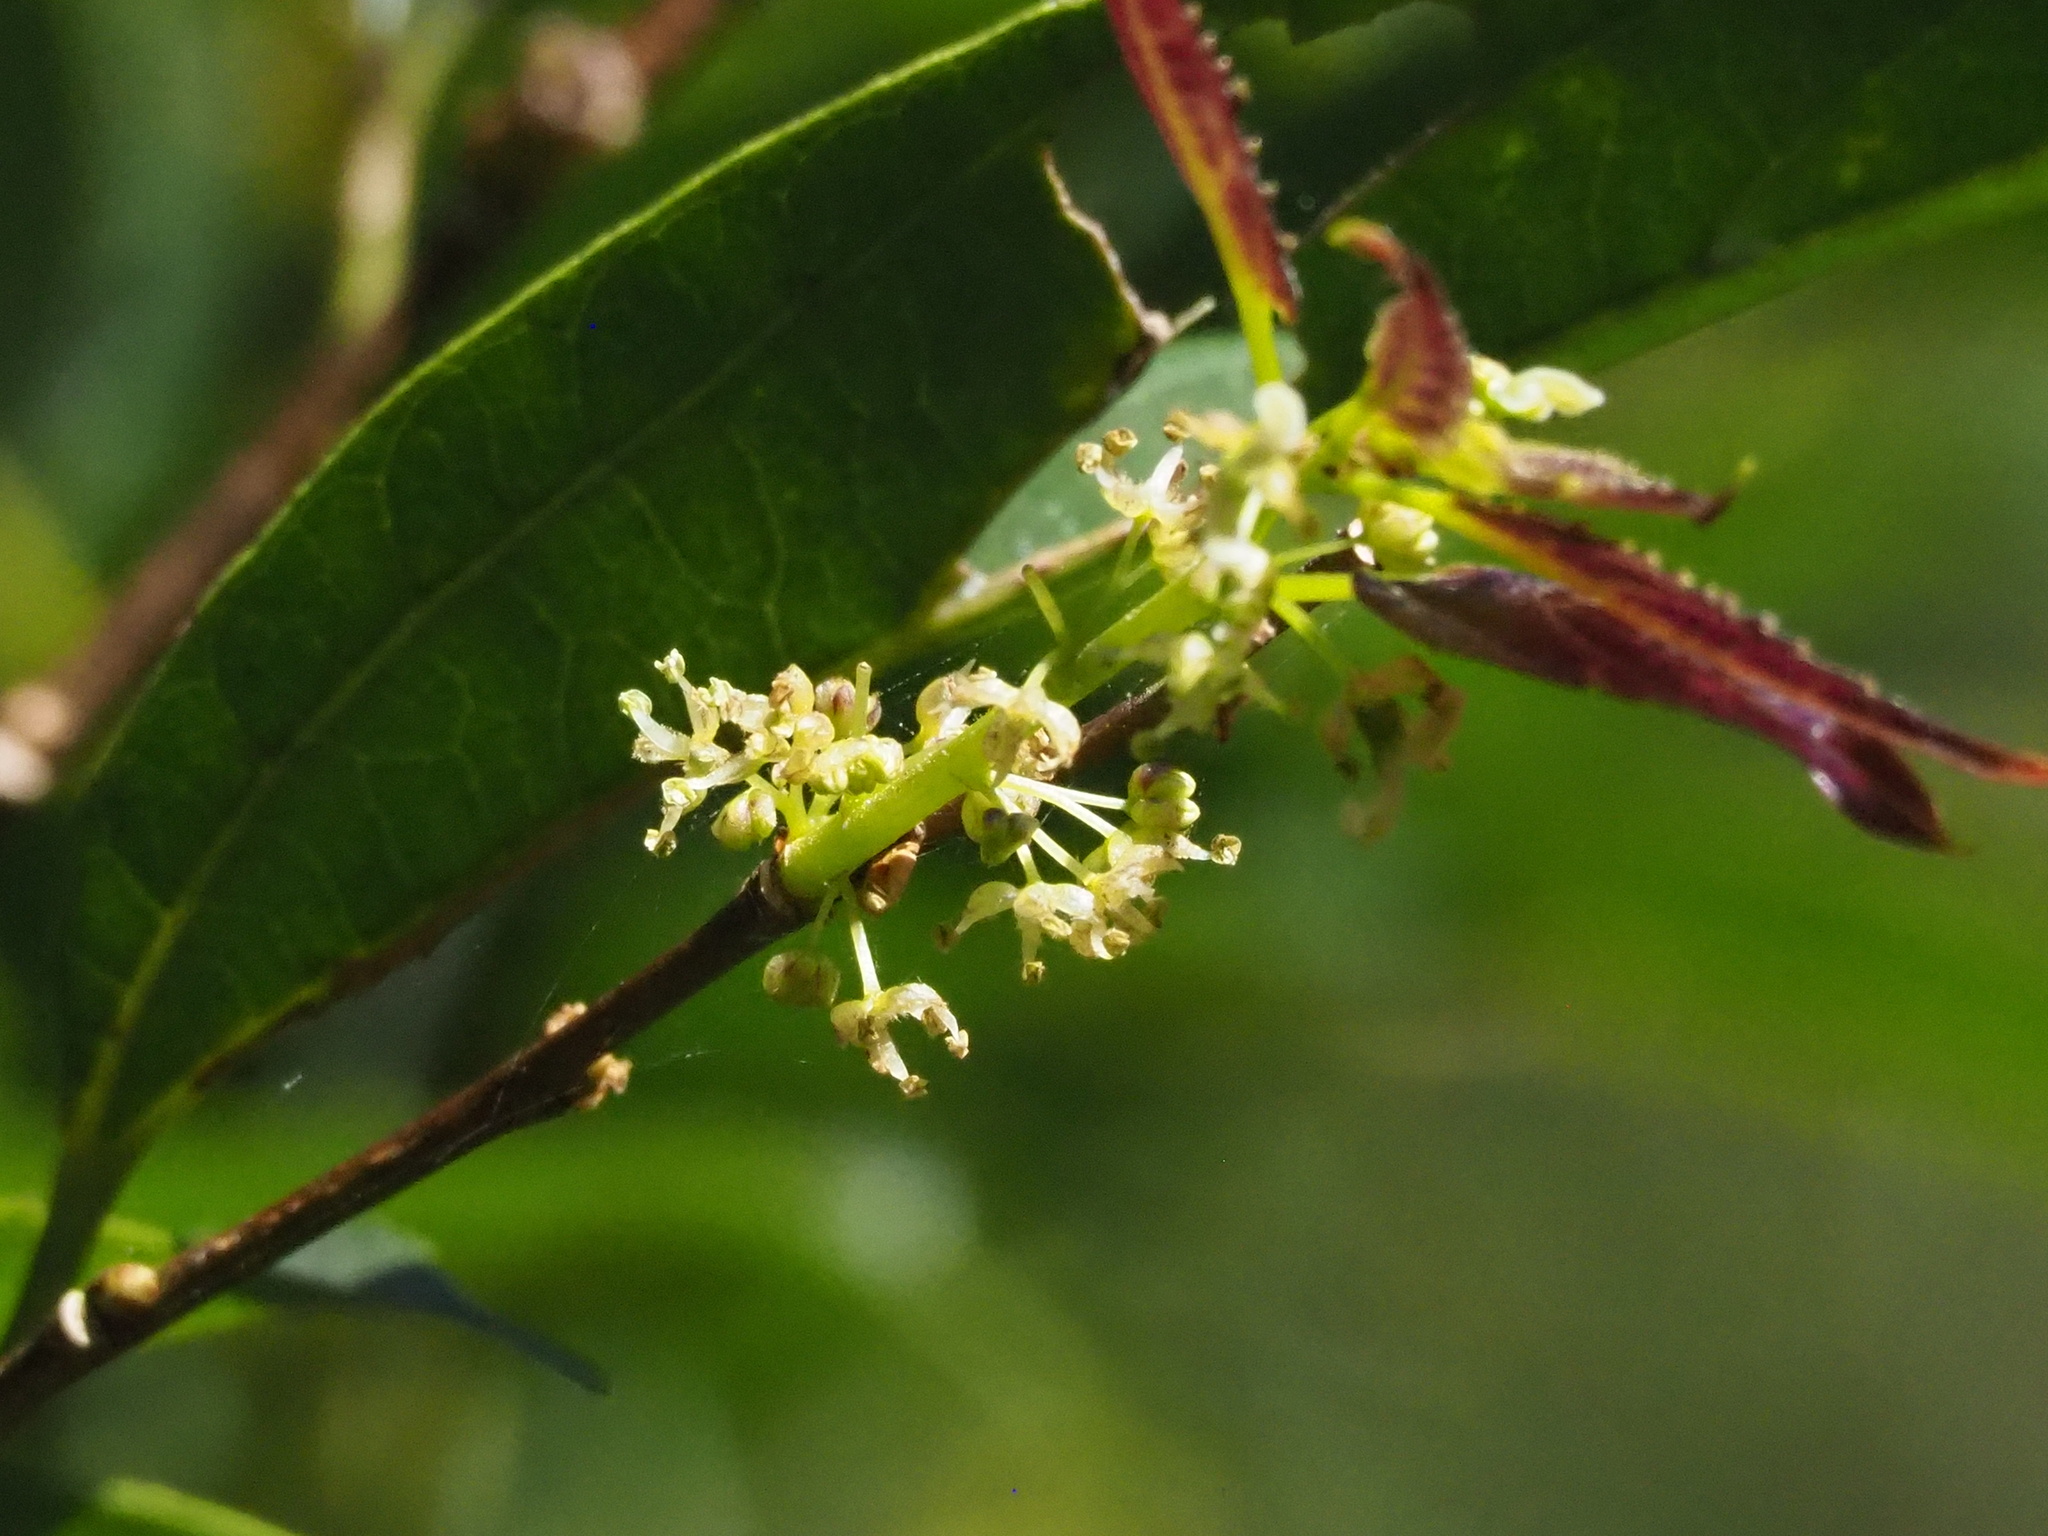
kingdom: Plantae
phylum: Tracheophyta
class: Magnoliopsida
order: Rosales
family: Cannabaceae
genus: Celtis
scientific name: Celtis tetrandra
